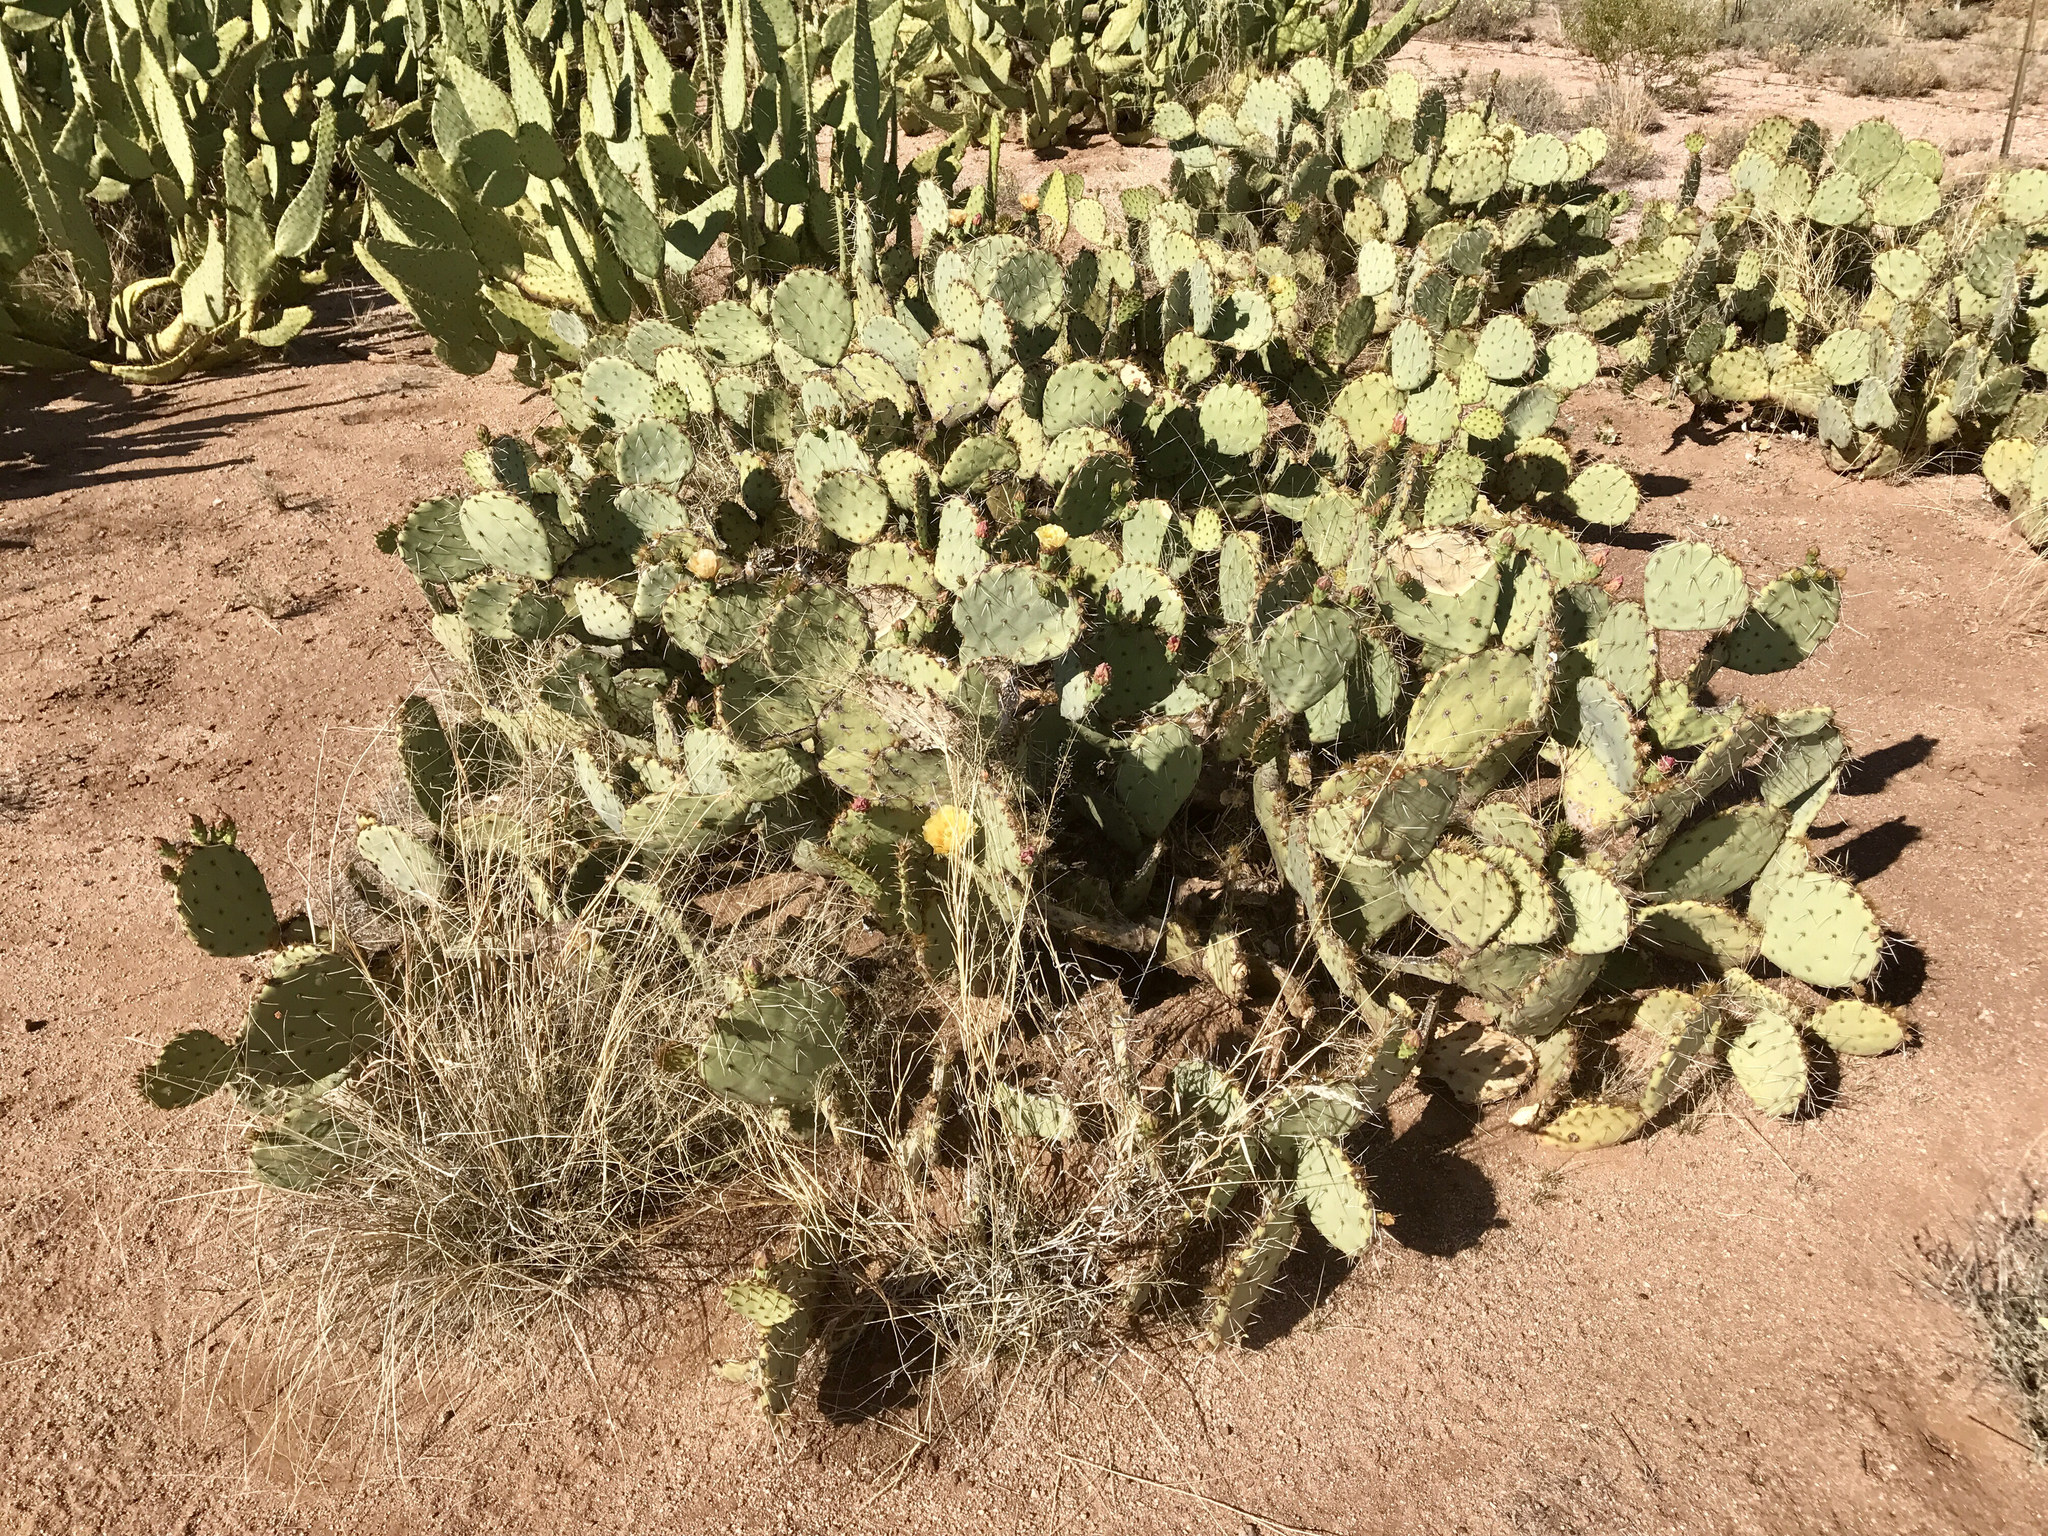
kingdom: Plantae
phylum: Tracheophyta
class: Magnoliopsida
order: Caryophyllales
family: Cactaceae
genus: Opuntia
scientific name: Opuntia engelmannii
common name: Cactus-apple
